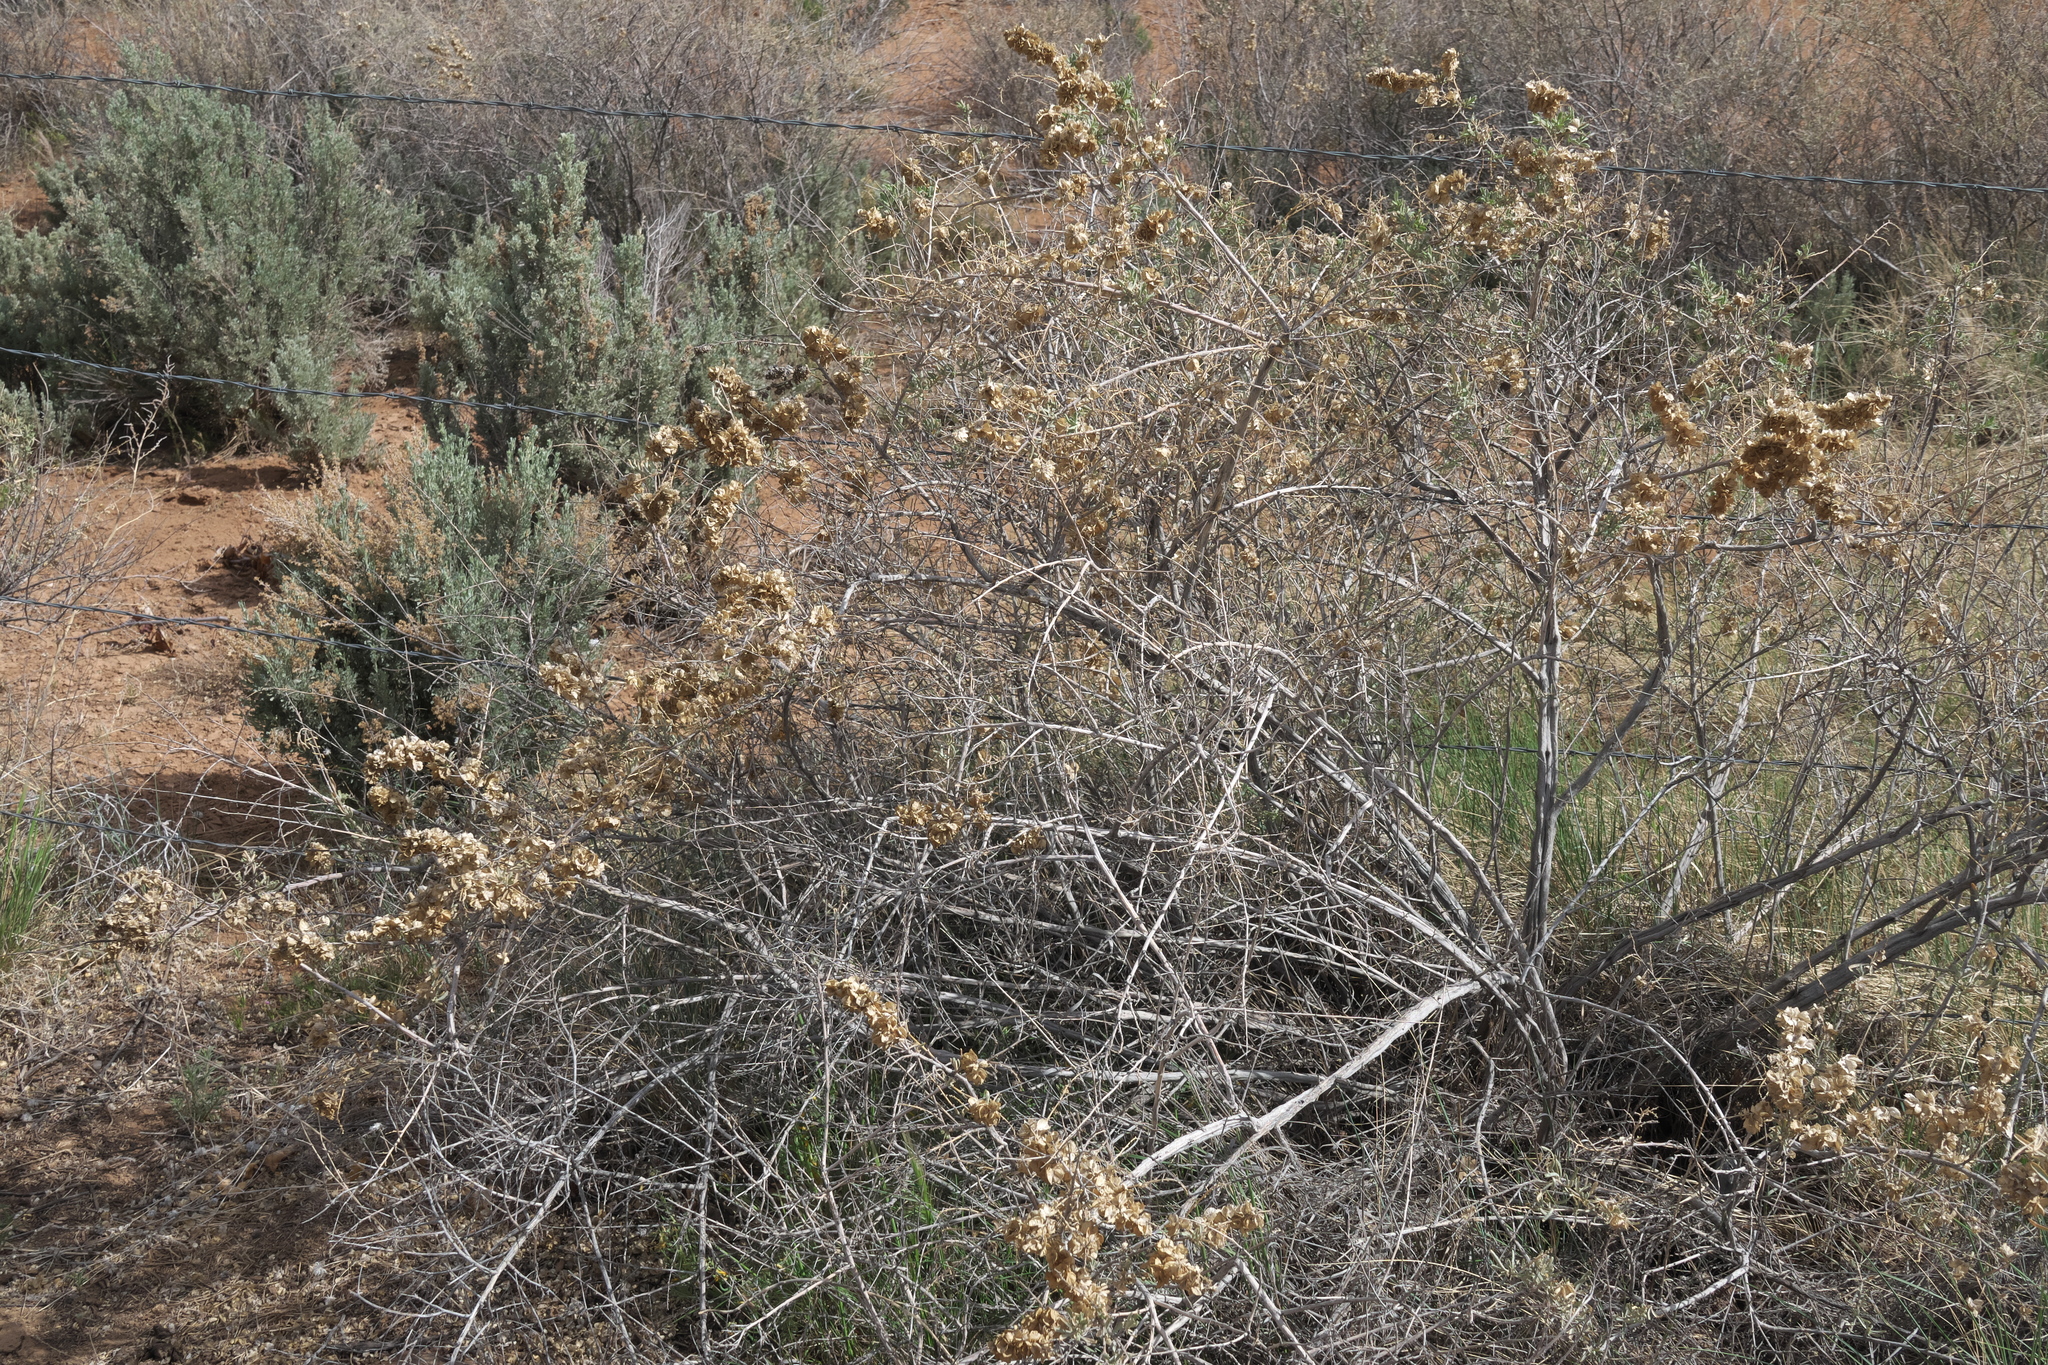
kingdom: Plantae
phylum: Tracheophyta
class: Magnoliopsida
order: Caryophyllales
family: Amaranthaceae
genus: Atriplex
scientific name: Atriplex canescens
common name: Four-wing saltbush
